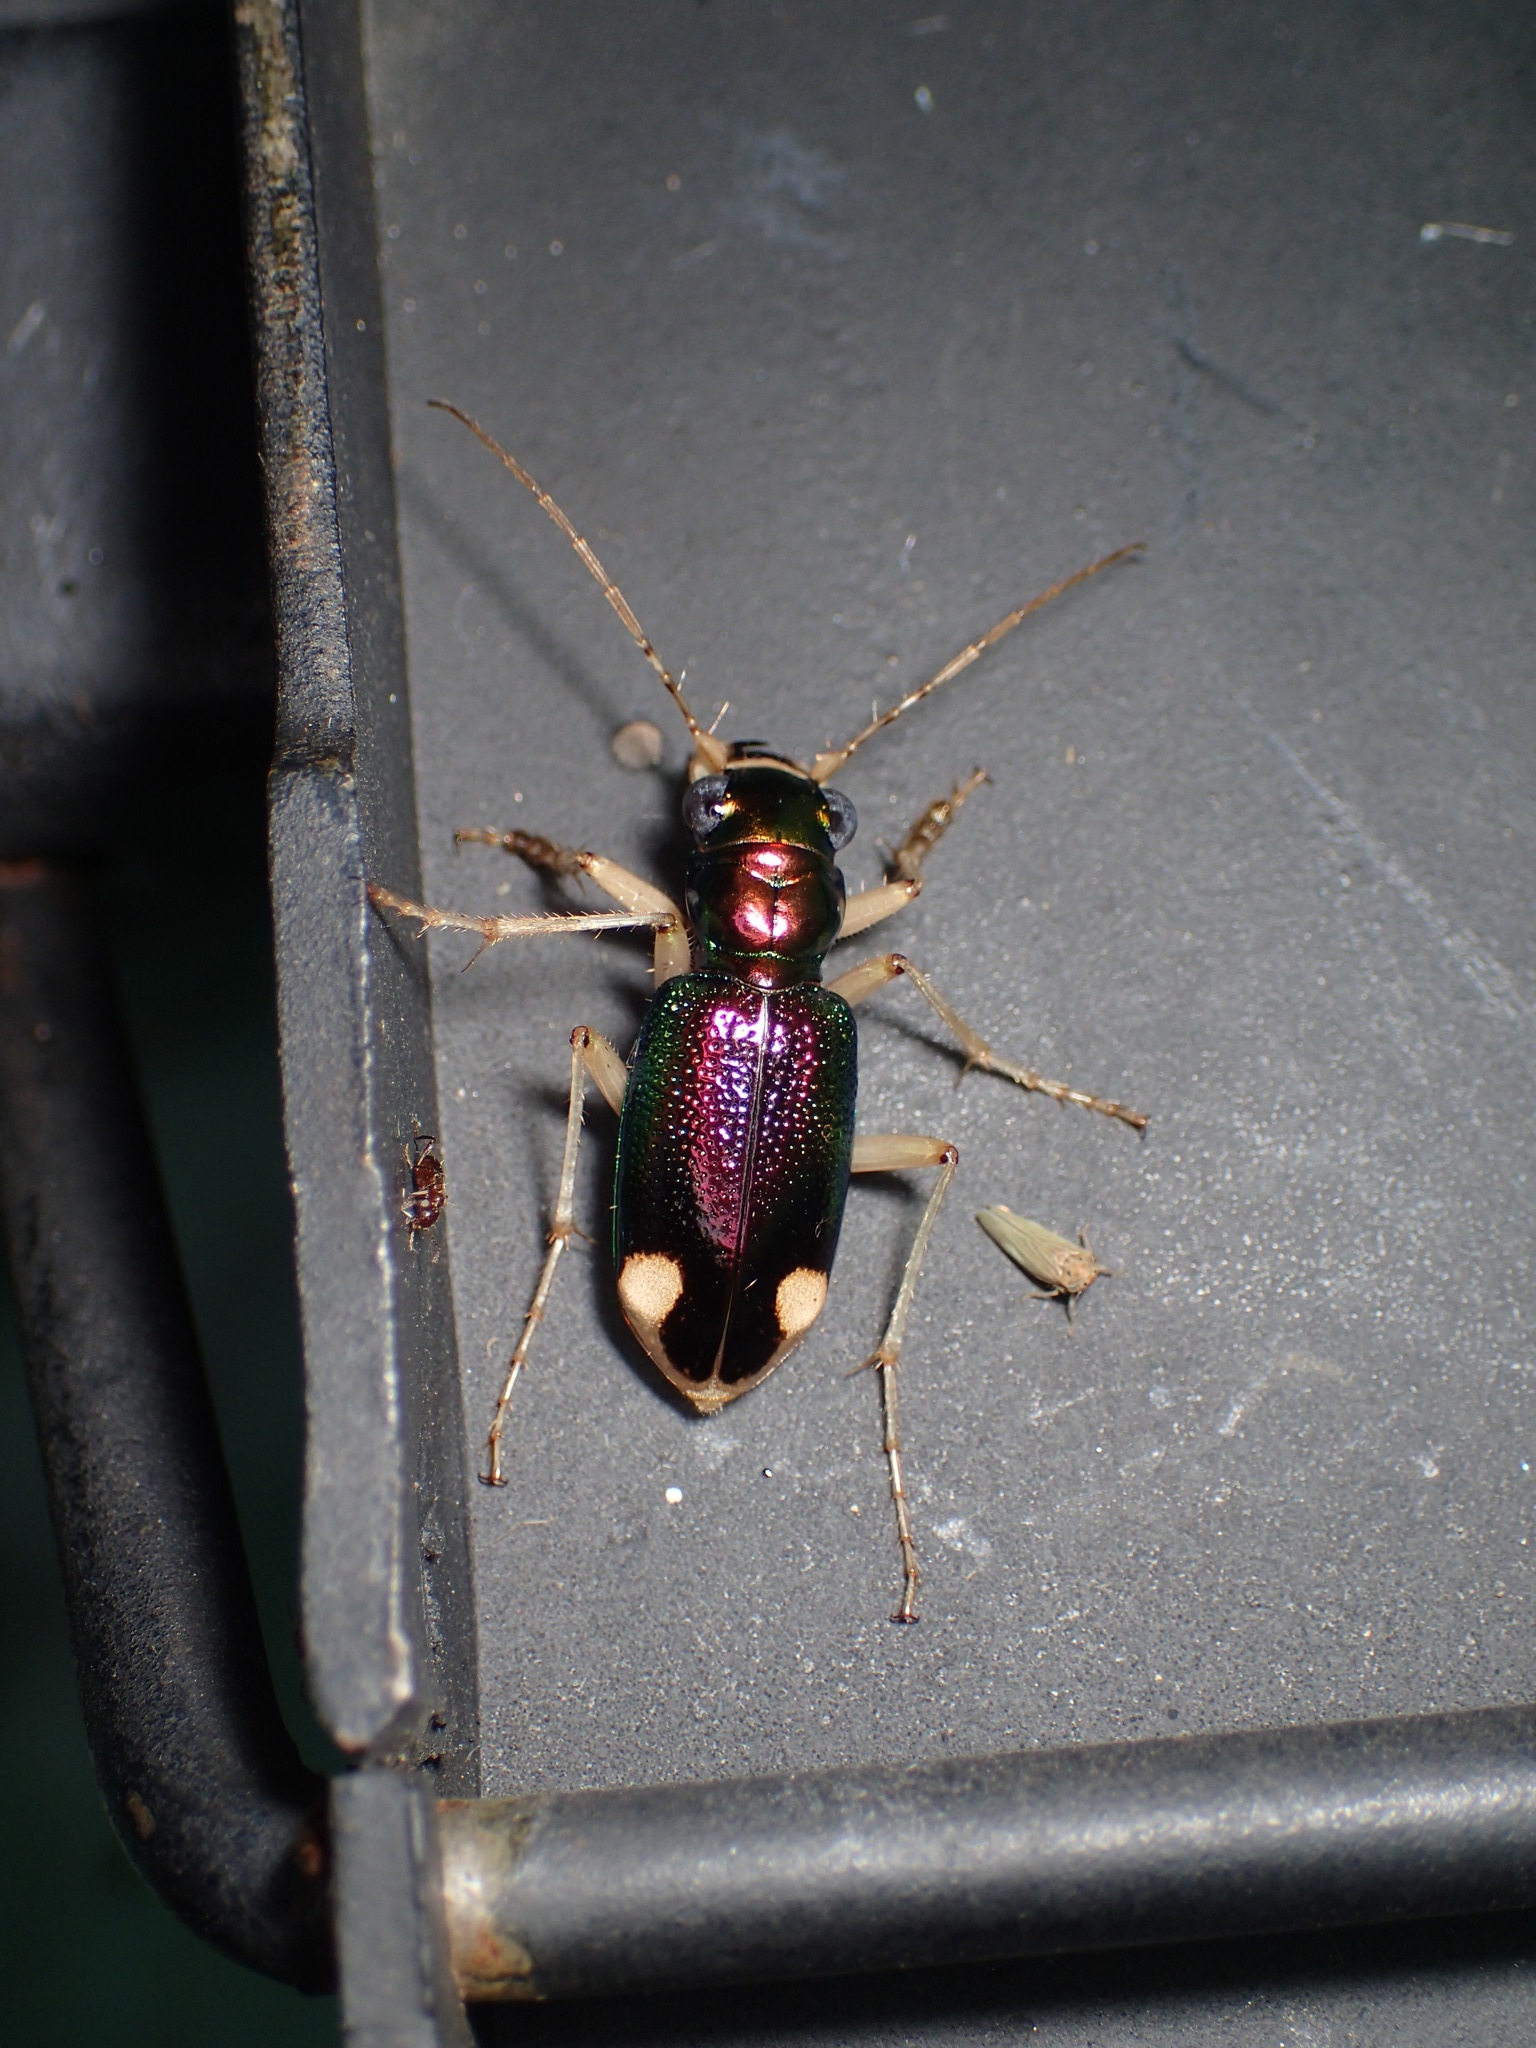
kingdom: Animalia
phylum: Arthropoda
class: Insecta
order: Coleoptera
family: Carabidae
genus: Tetracha
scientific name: Tetracha carolina
